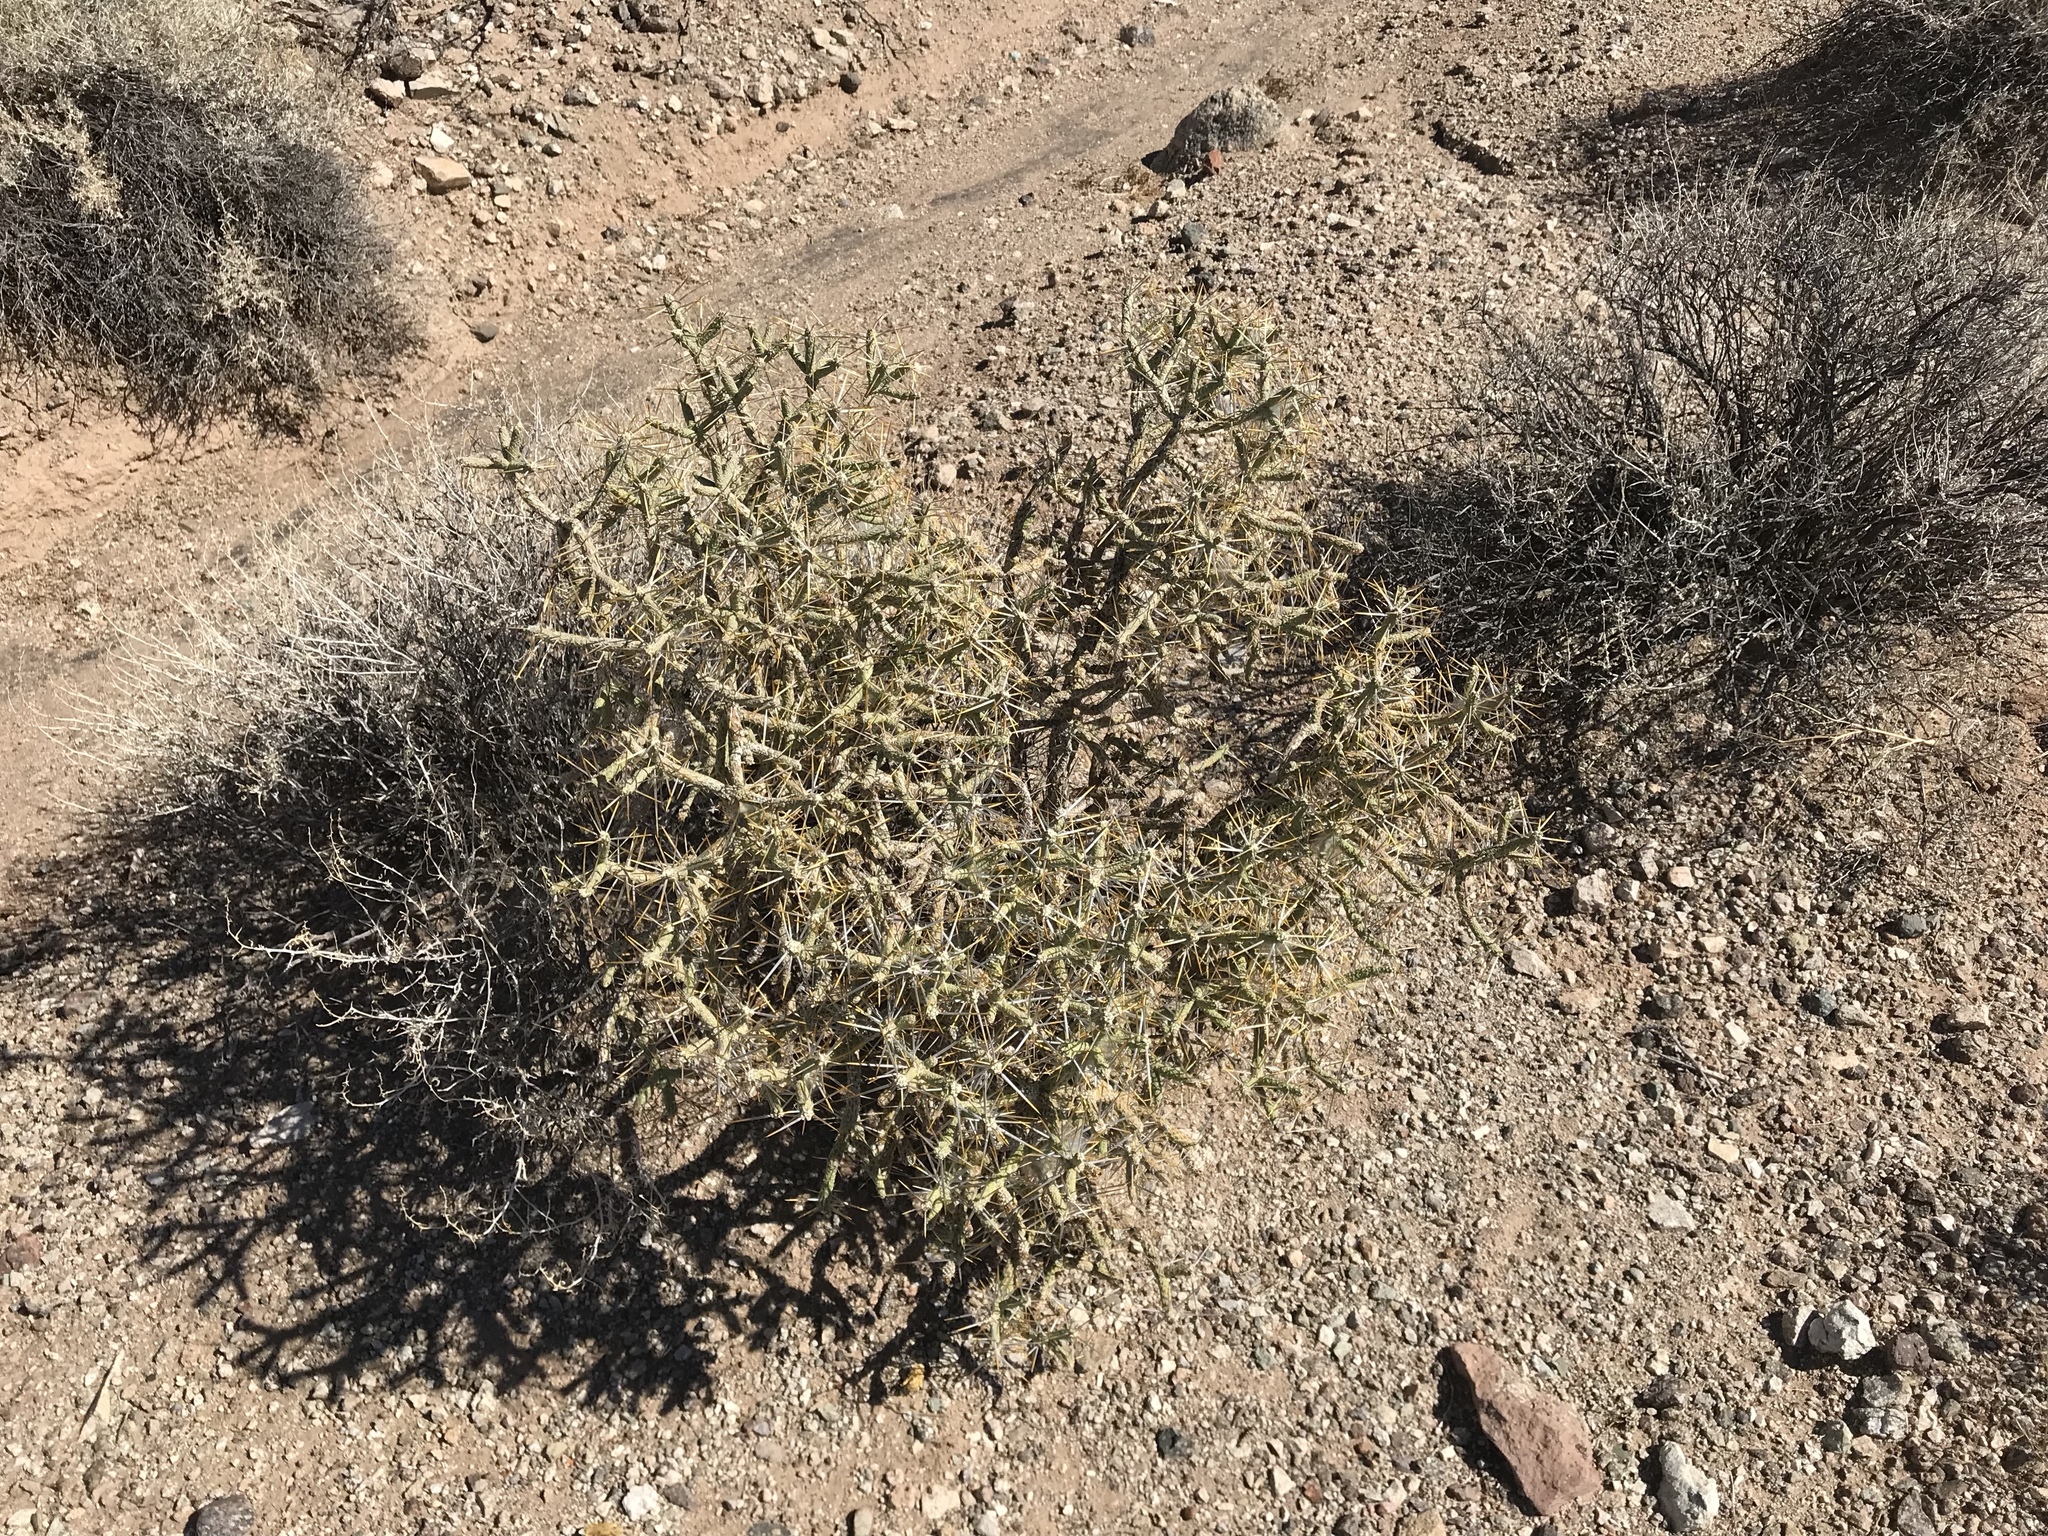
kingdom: Plantae
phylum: Tracheophyta
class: Magnoliopsida
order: Caryophyllales
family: Cactaceae
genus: Cylindropuntia
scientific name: Cylindropuntia ramosissima
